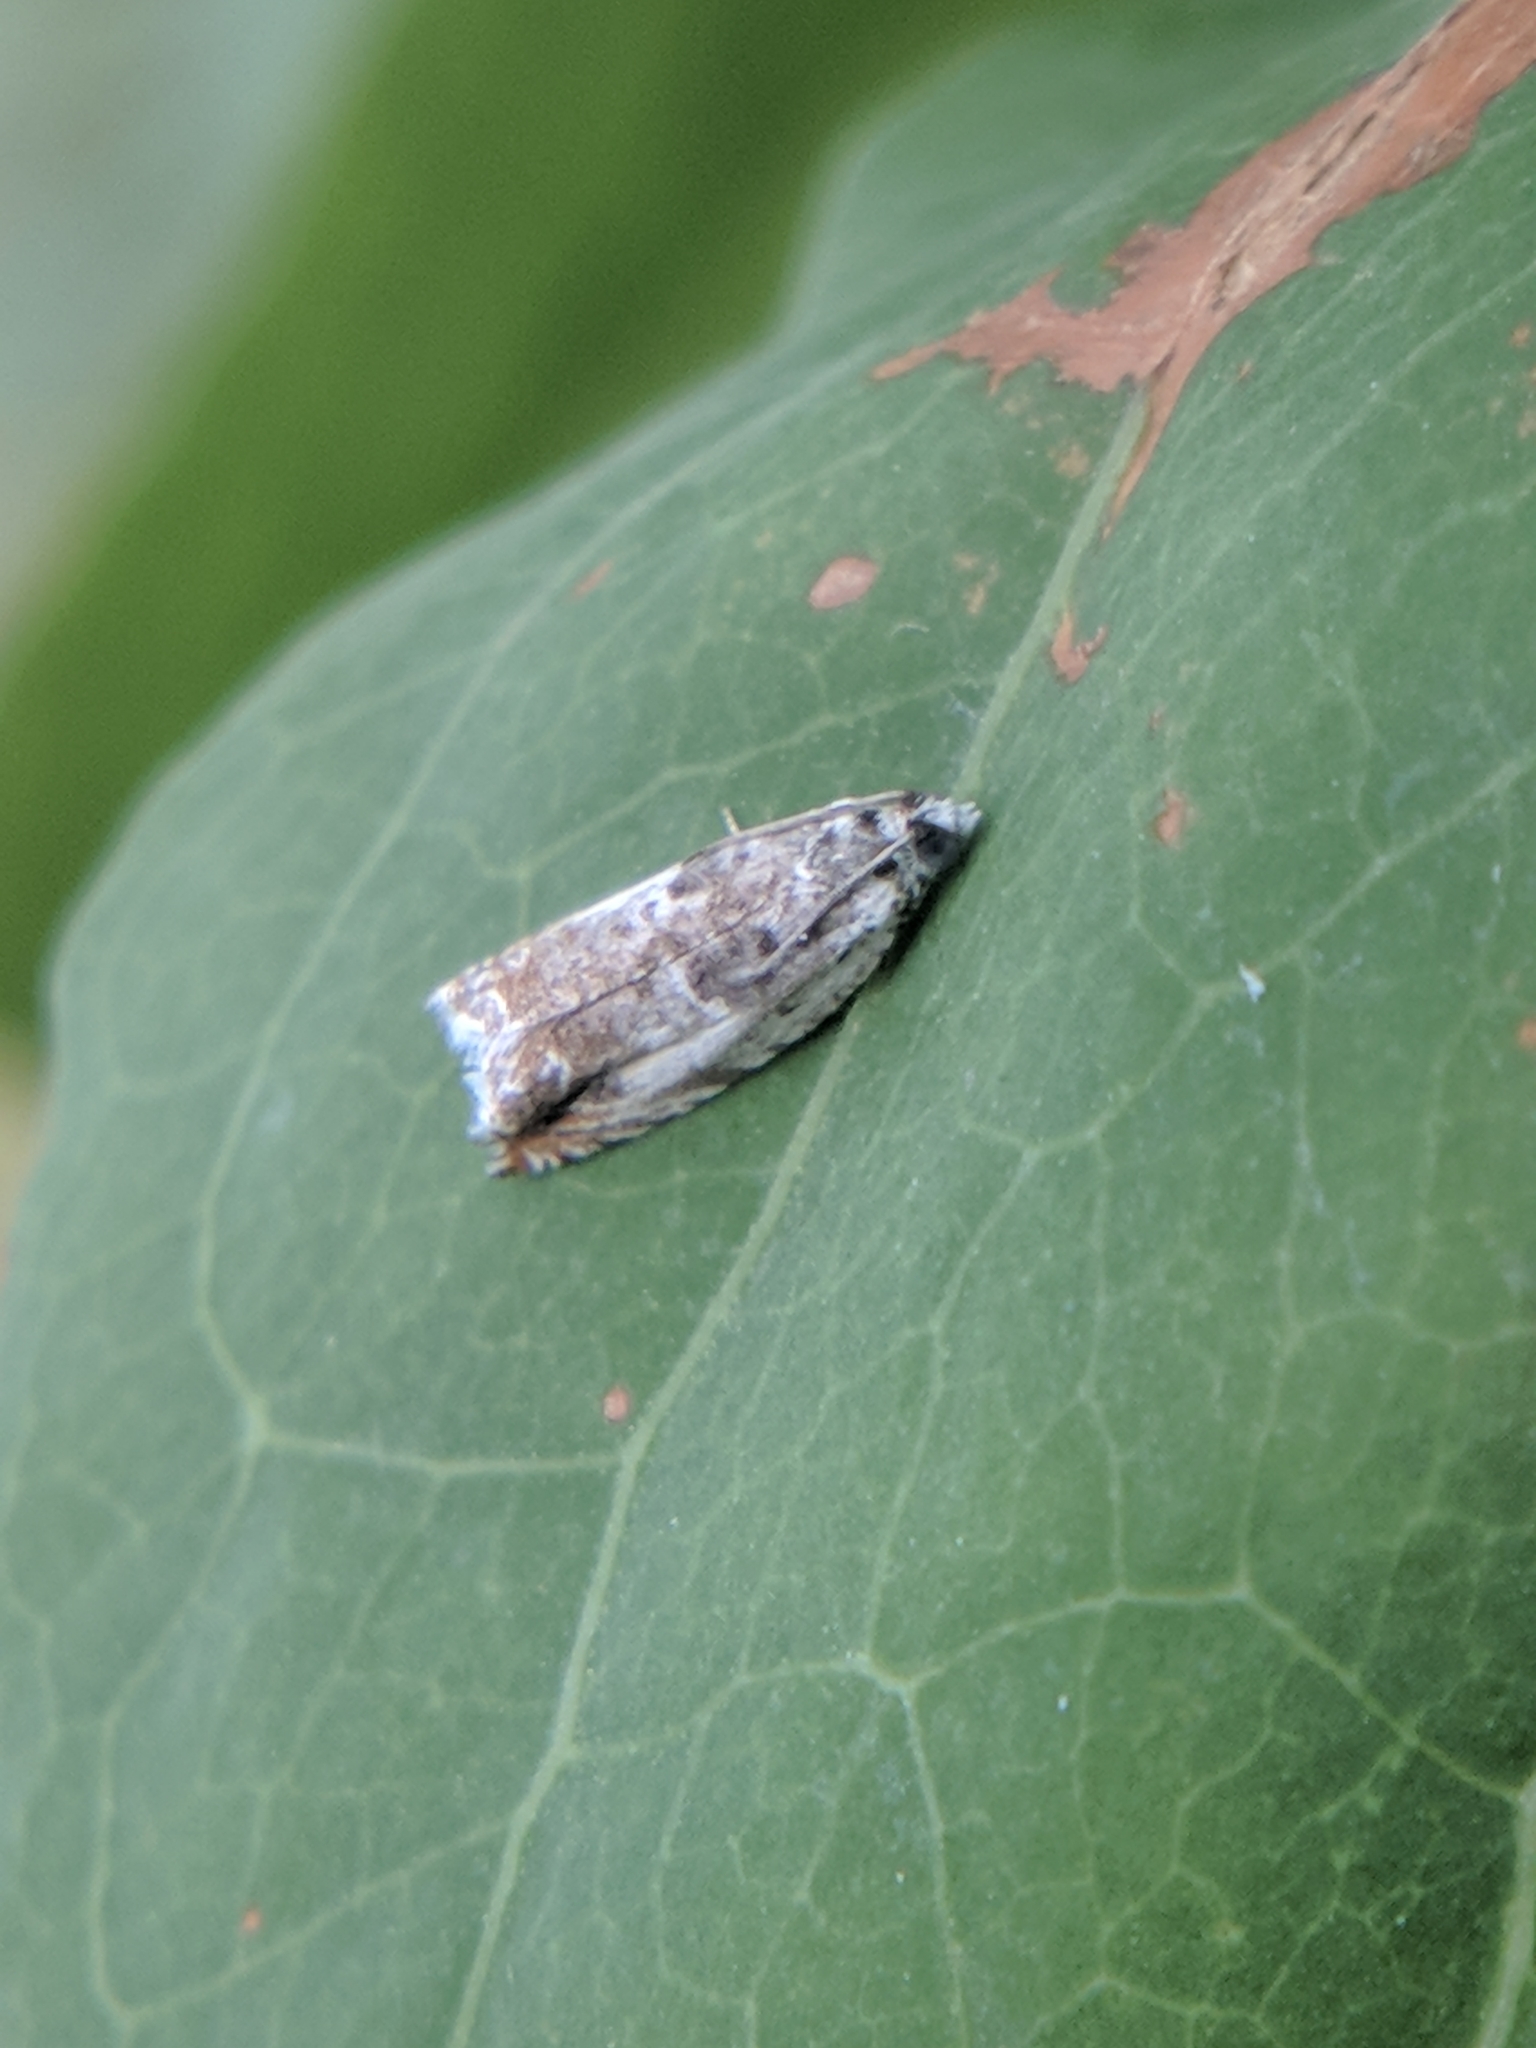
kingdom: Animalia
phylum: Arthropoda
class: Insecta
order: Lepidoptera
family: Tortricidae
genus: Ancylis
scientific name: Ancylis laetana
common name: Aspen roller
